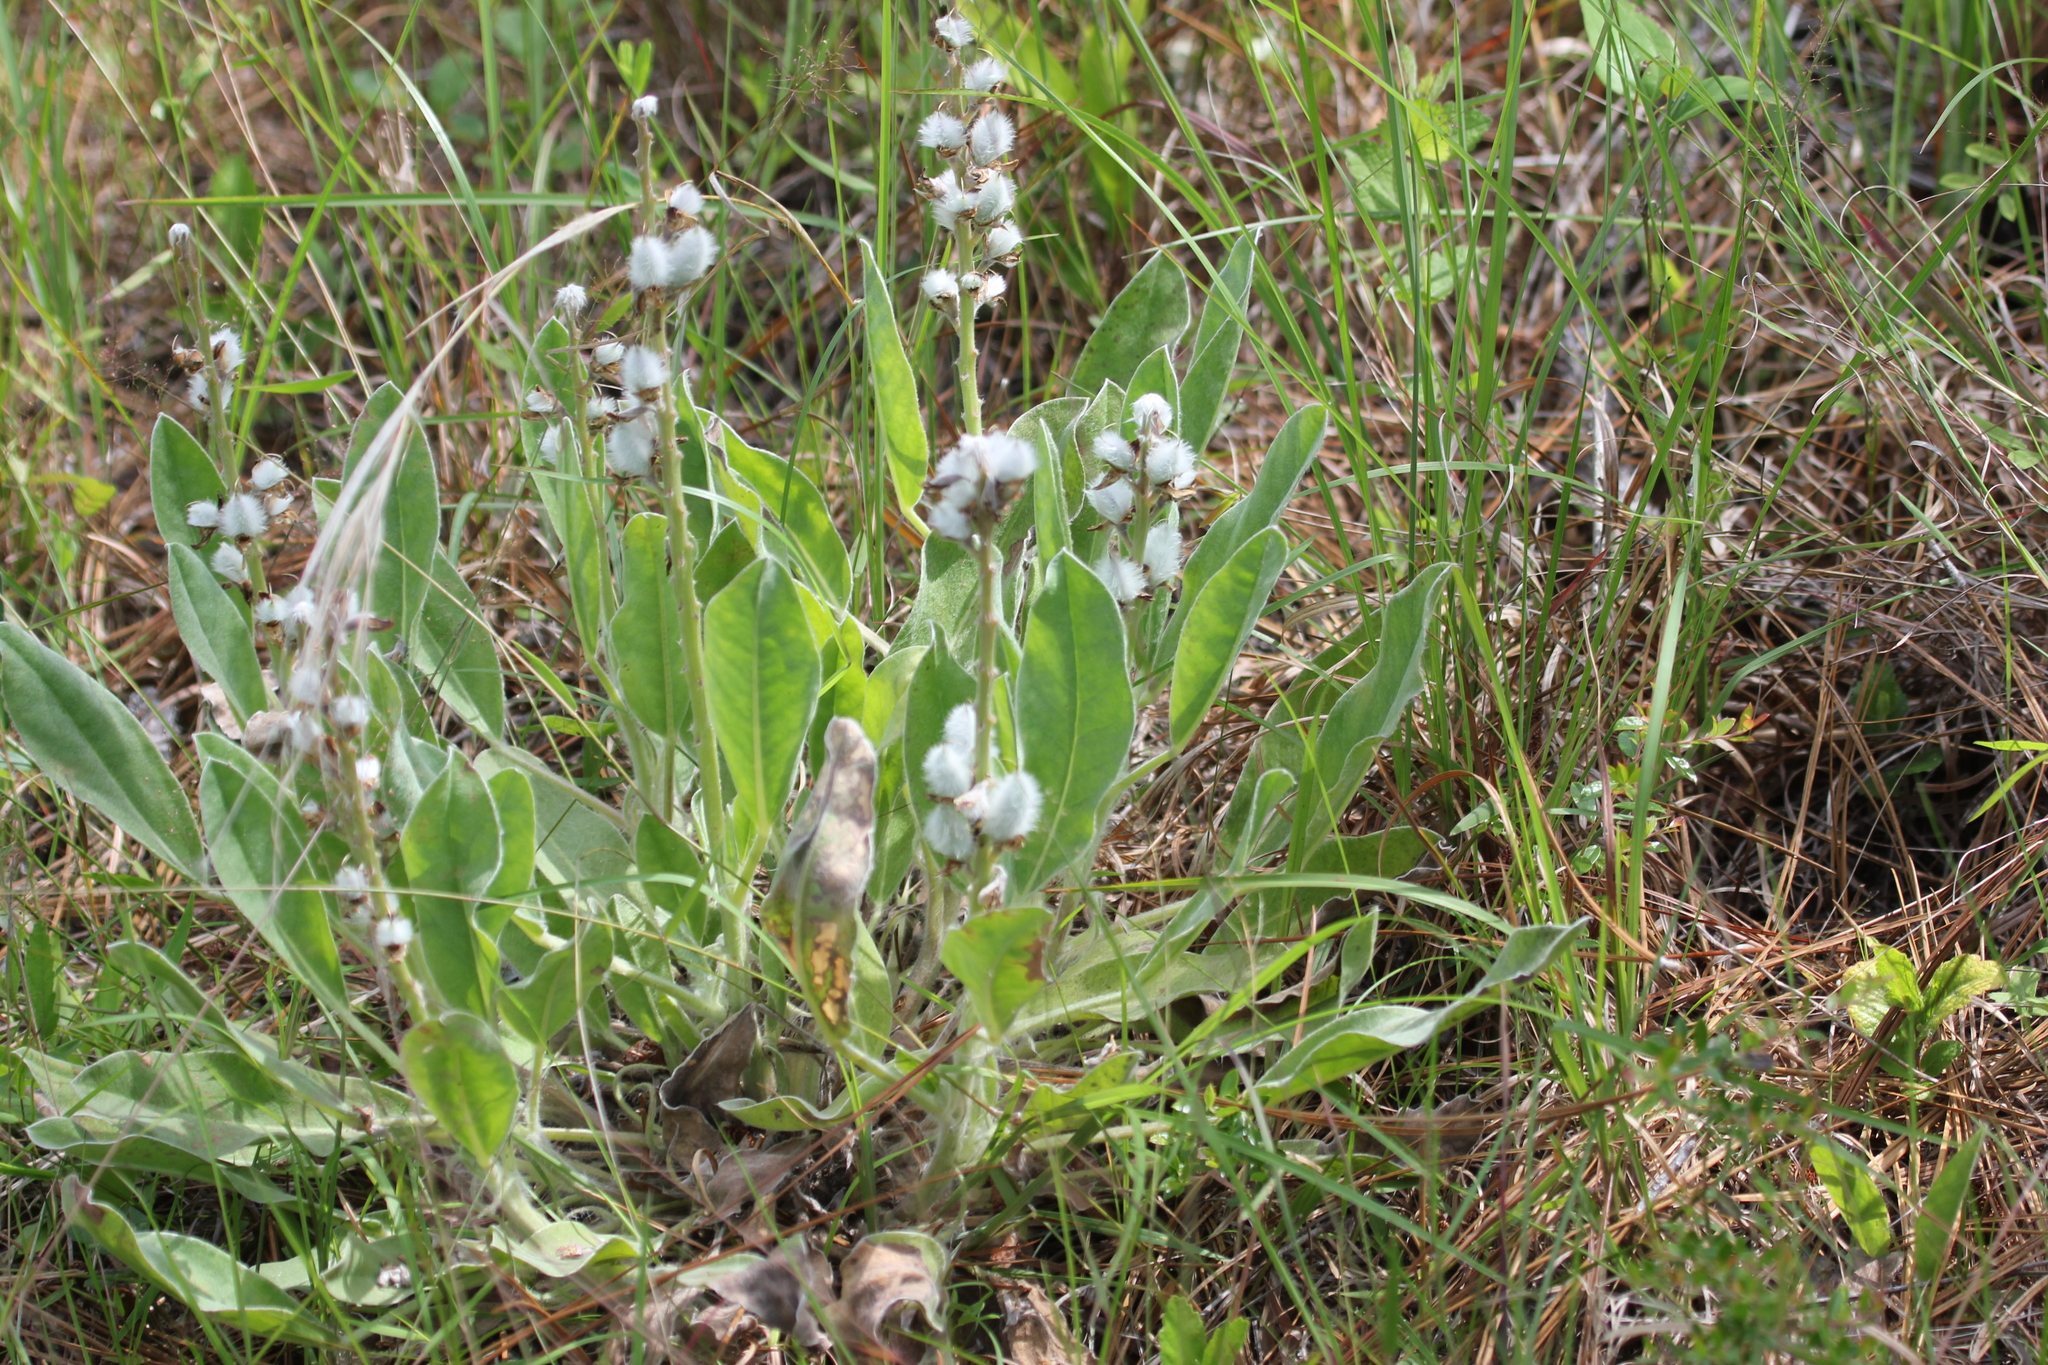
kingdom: Plantae
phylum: Tracheophyta
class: Magnoliopsida
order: Fabales
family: Fabaceae
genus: Lupinus
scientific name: Lupinus villosus
